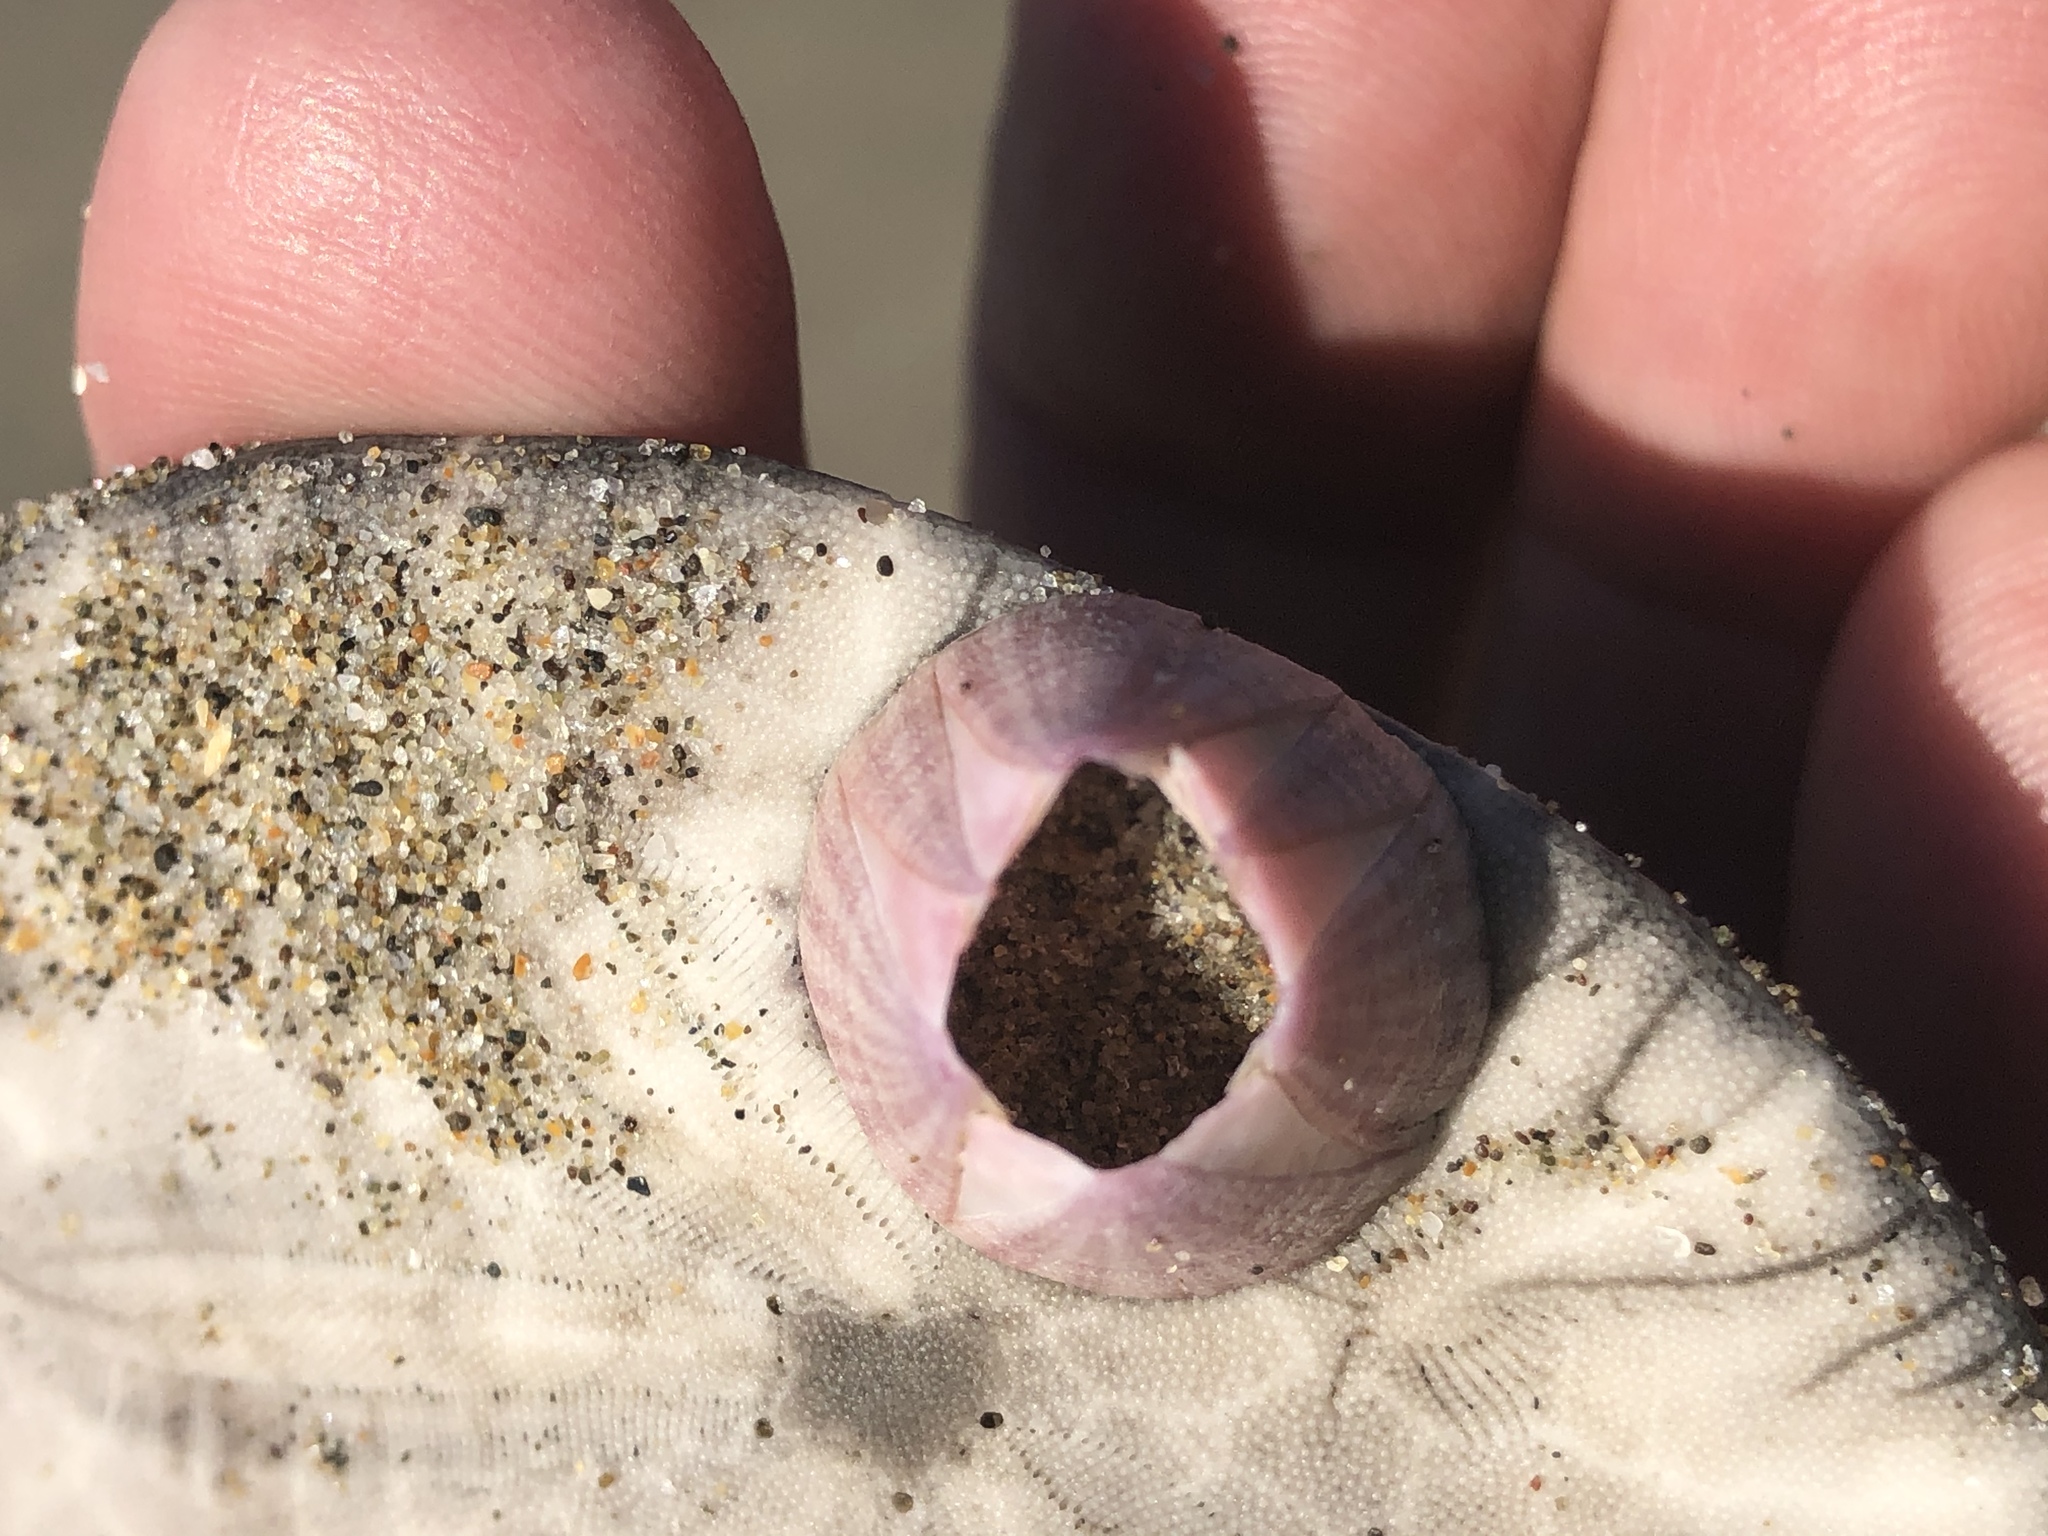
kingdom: Animalia
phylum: Arthropoda
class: Maxillopoda
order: Sessilia
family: Balanidae
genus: Paraconcavus
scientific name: Paraconcavus pacificus
